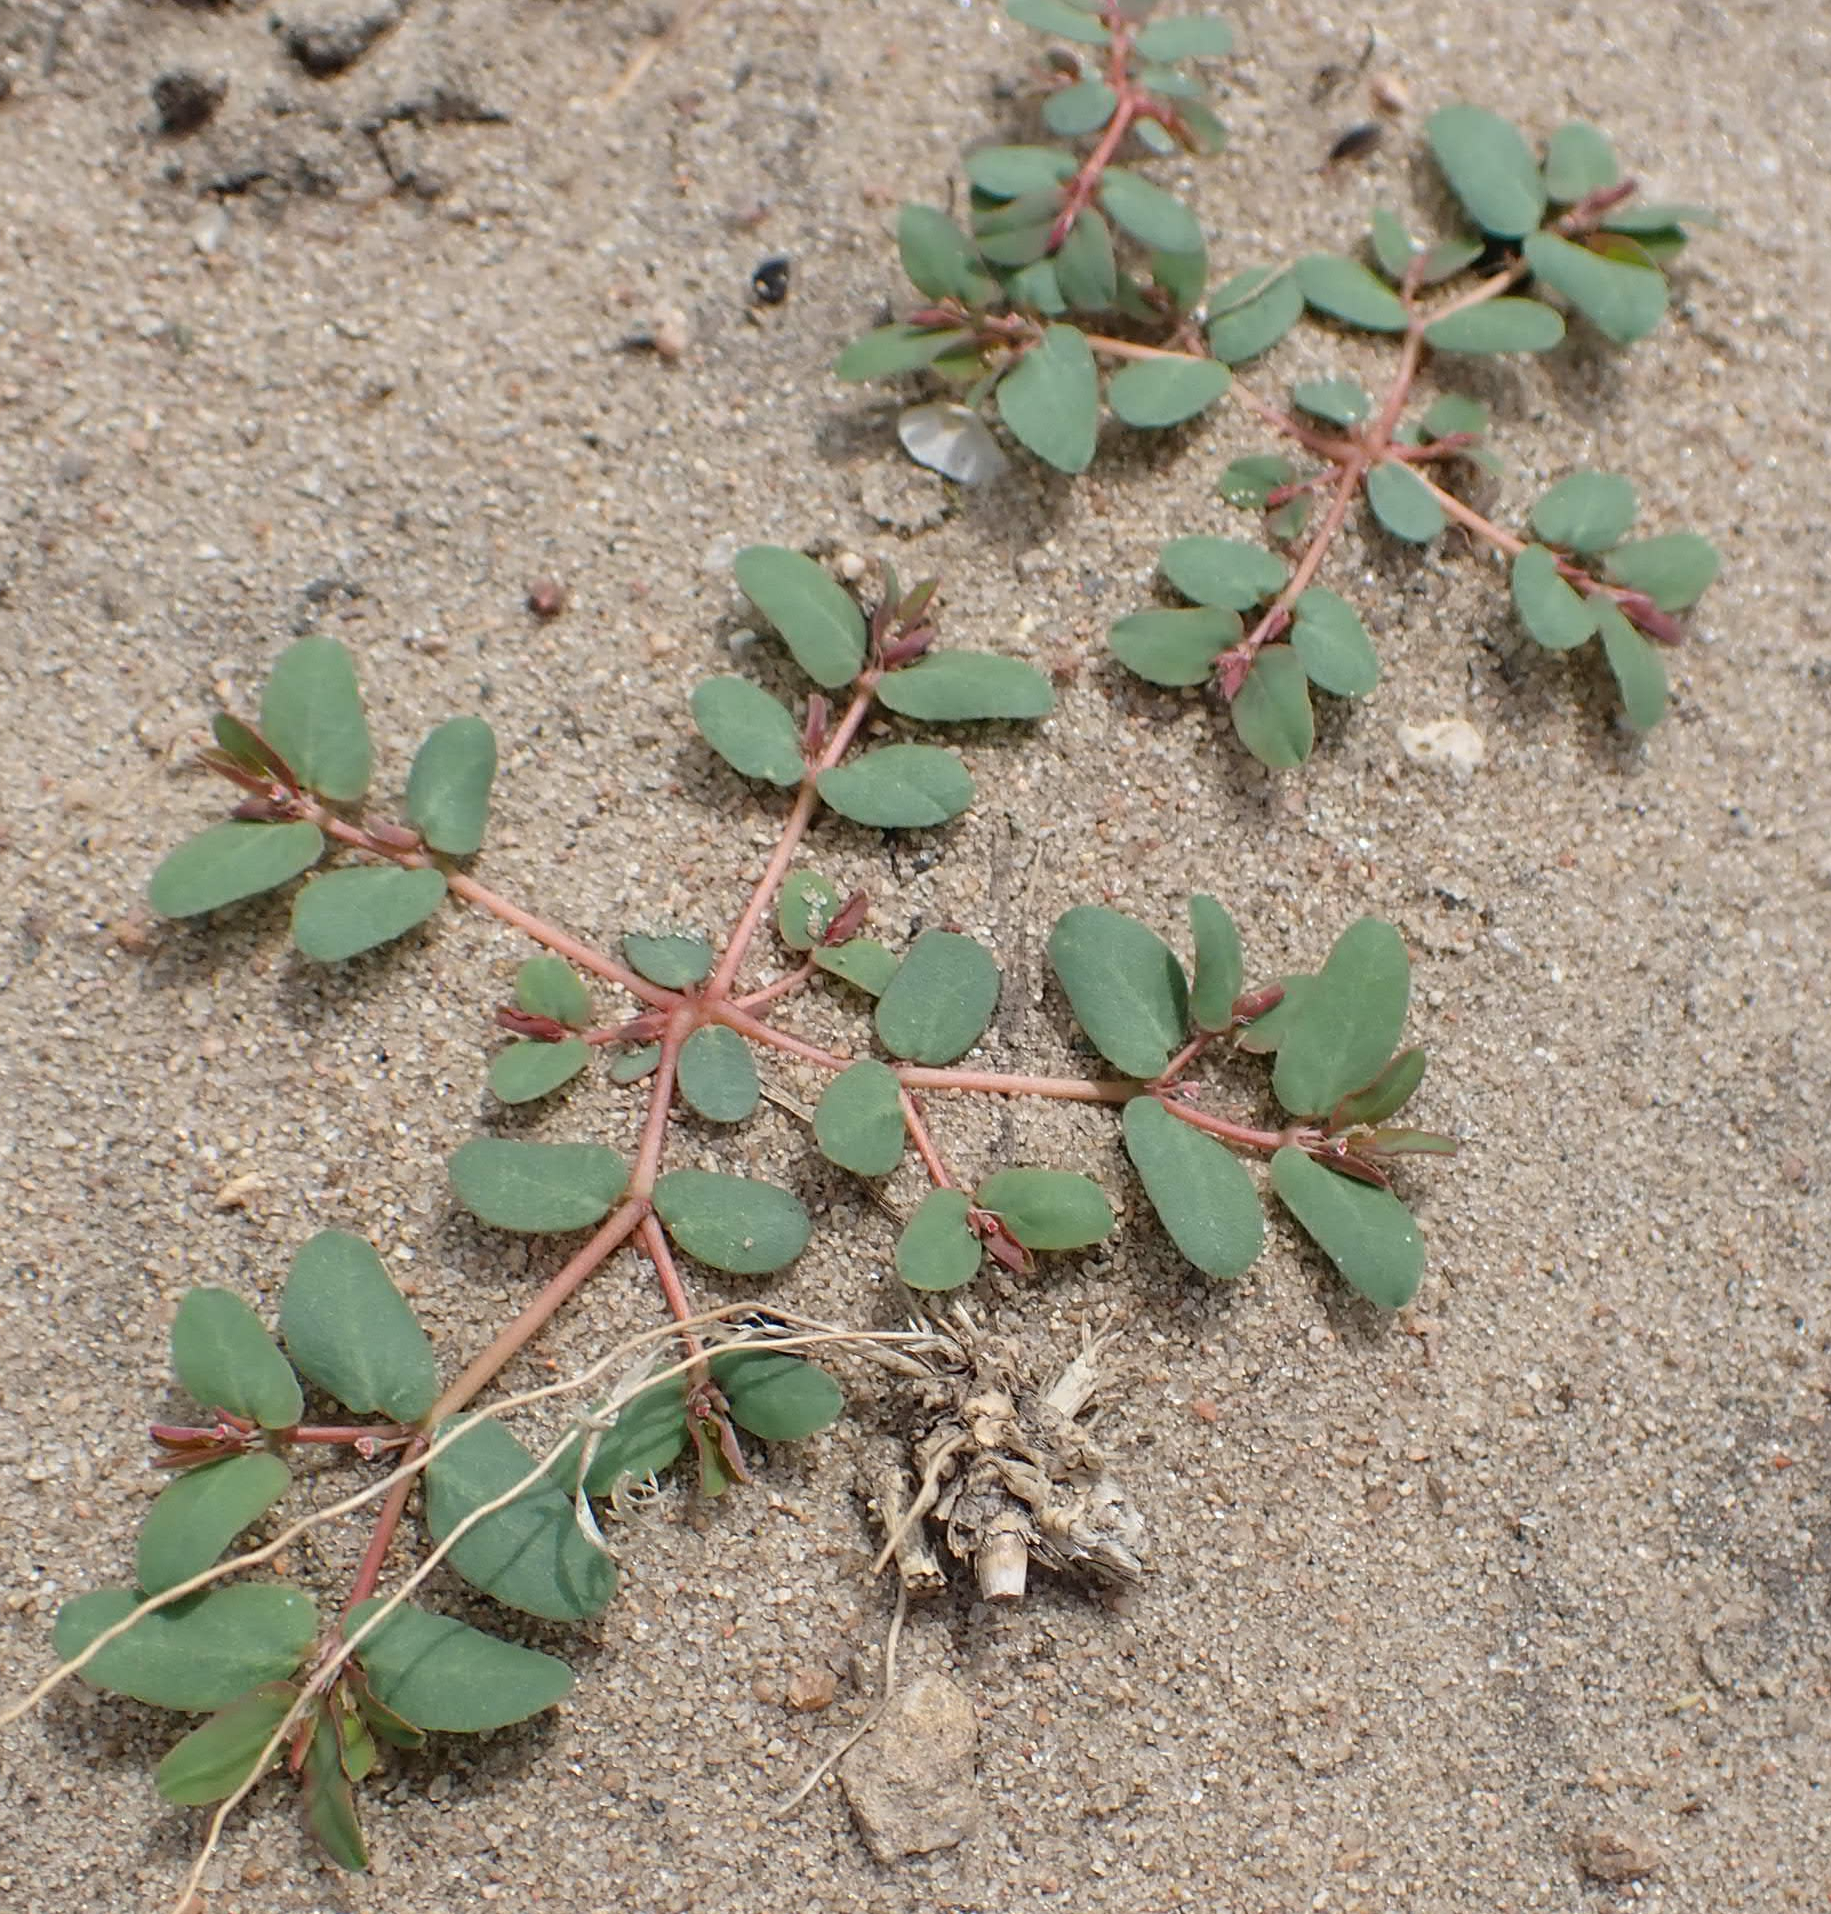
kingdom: Plantae
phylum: Tracheophyta
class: Magnoliopsida
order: Malpighiales
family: Euphorbiaceae
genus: Euphorbia
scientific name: Euphorbia glyptosperma
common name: Corrugate-seeded spurge
